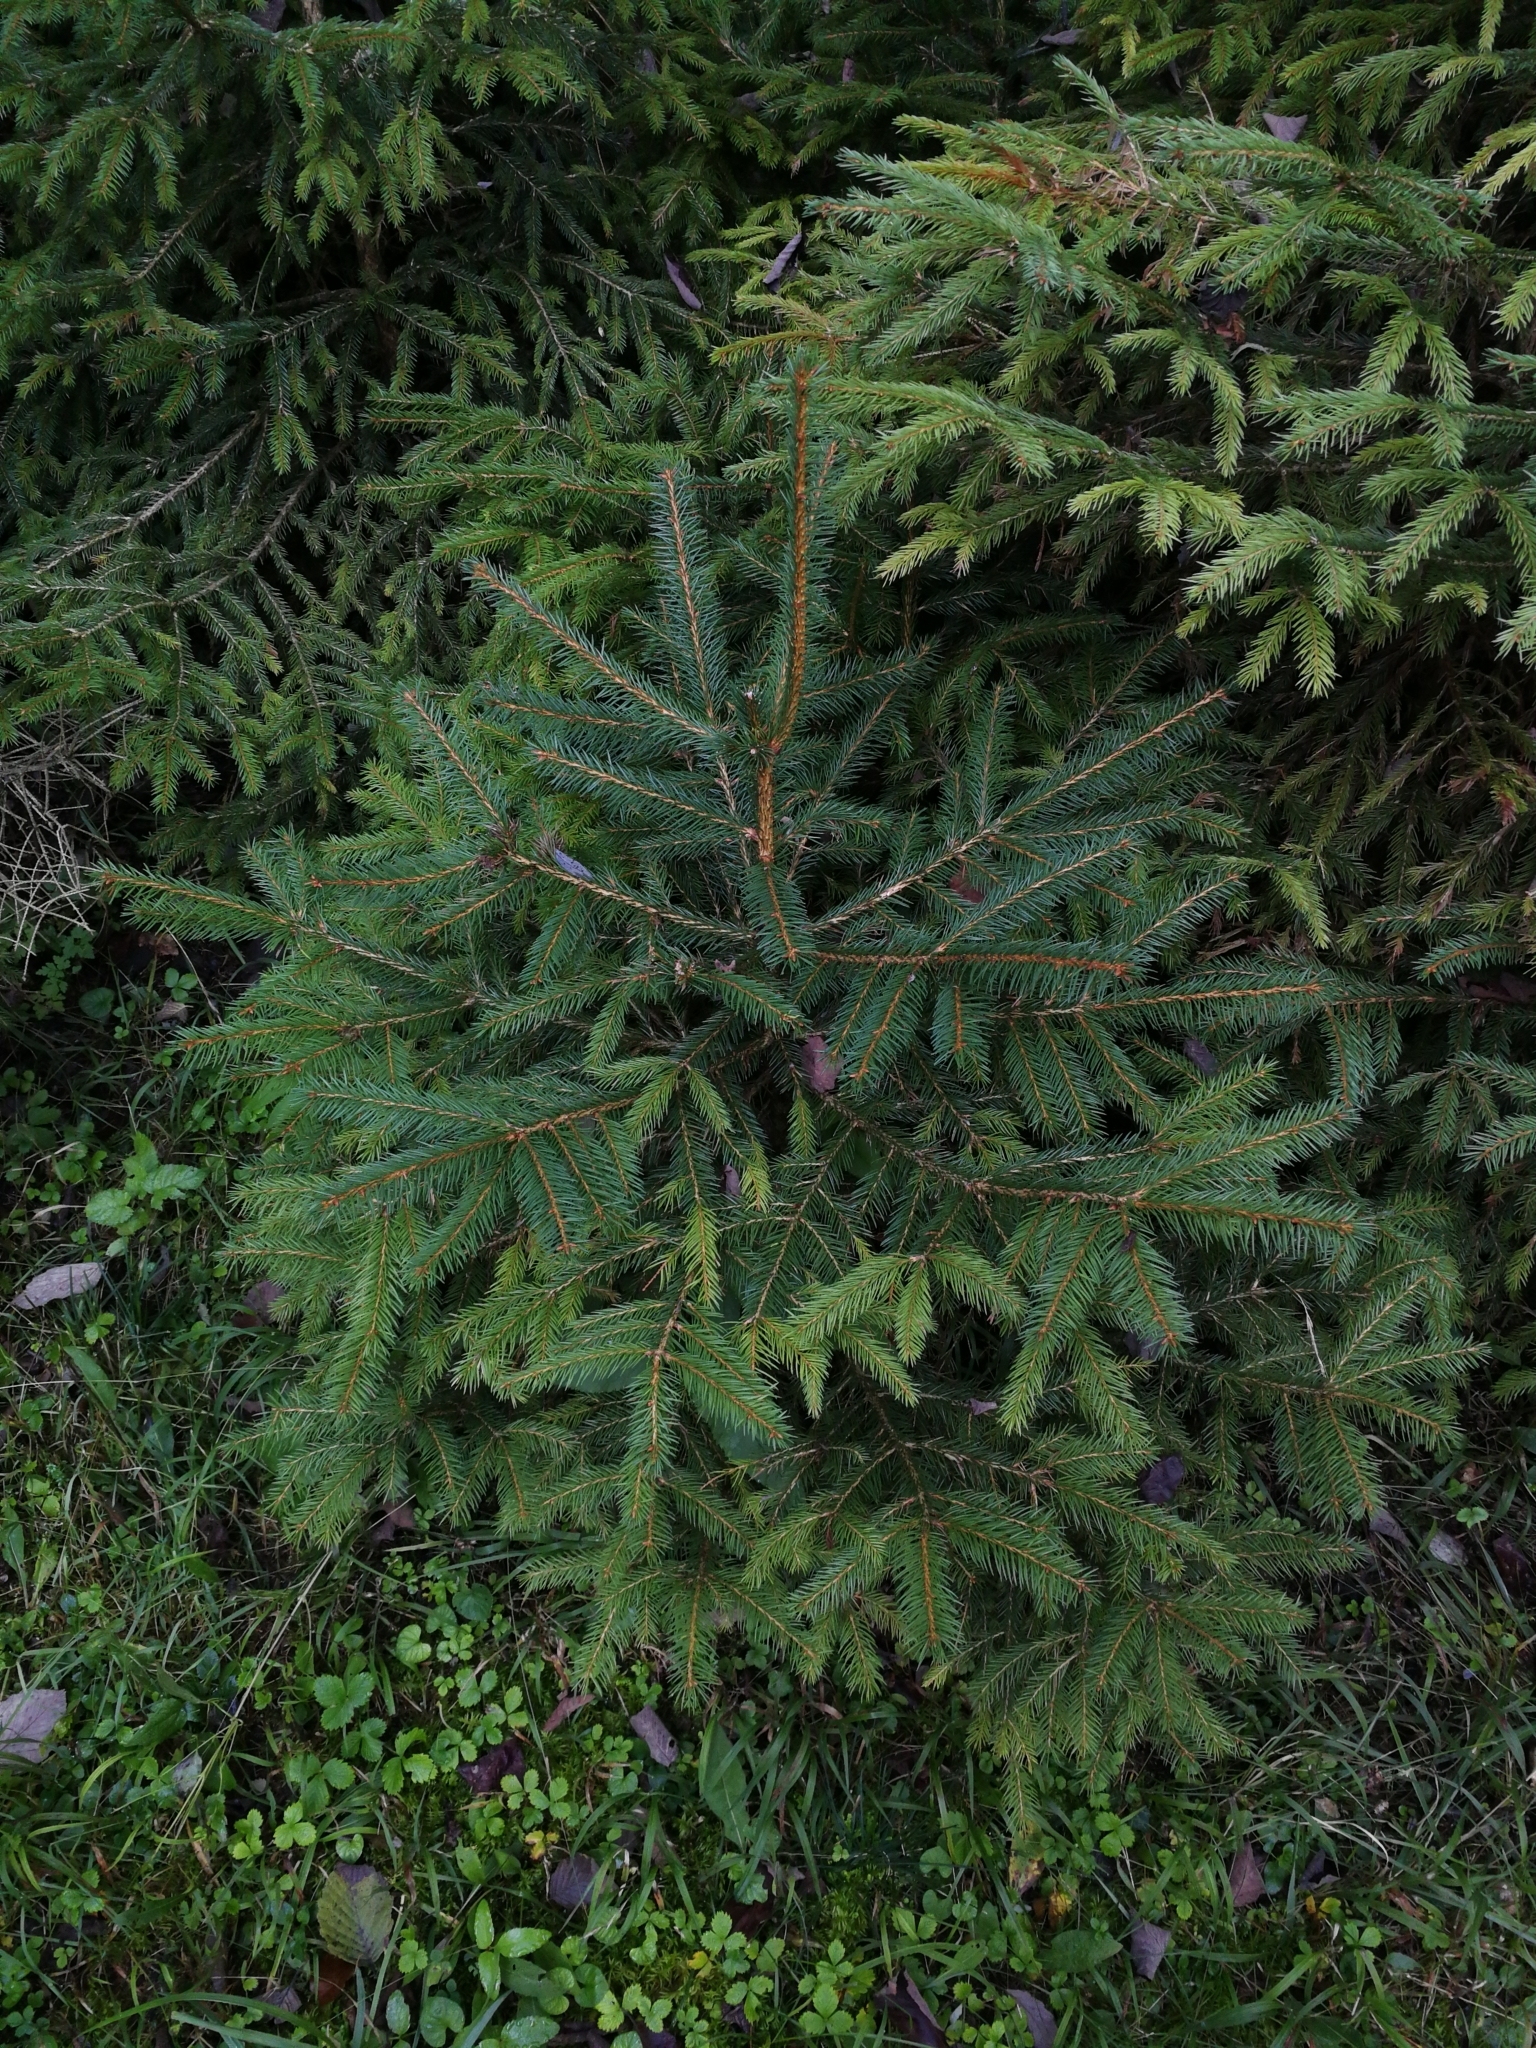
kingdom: Plantae
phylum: Tracheophyta
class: Pinopsida
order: Pinales
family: Pinaceae
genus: Picea
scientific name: Picea abies
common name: Norway spruce
